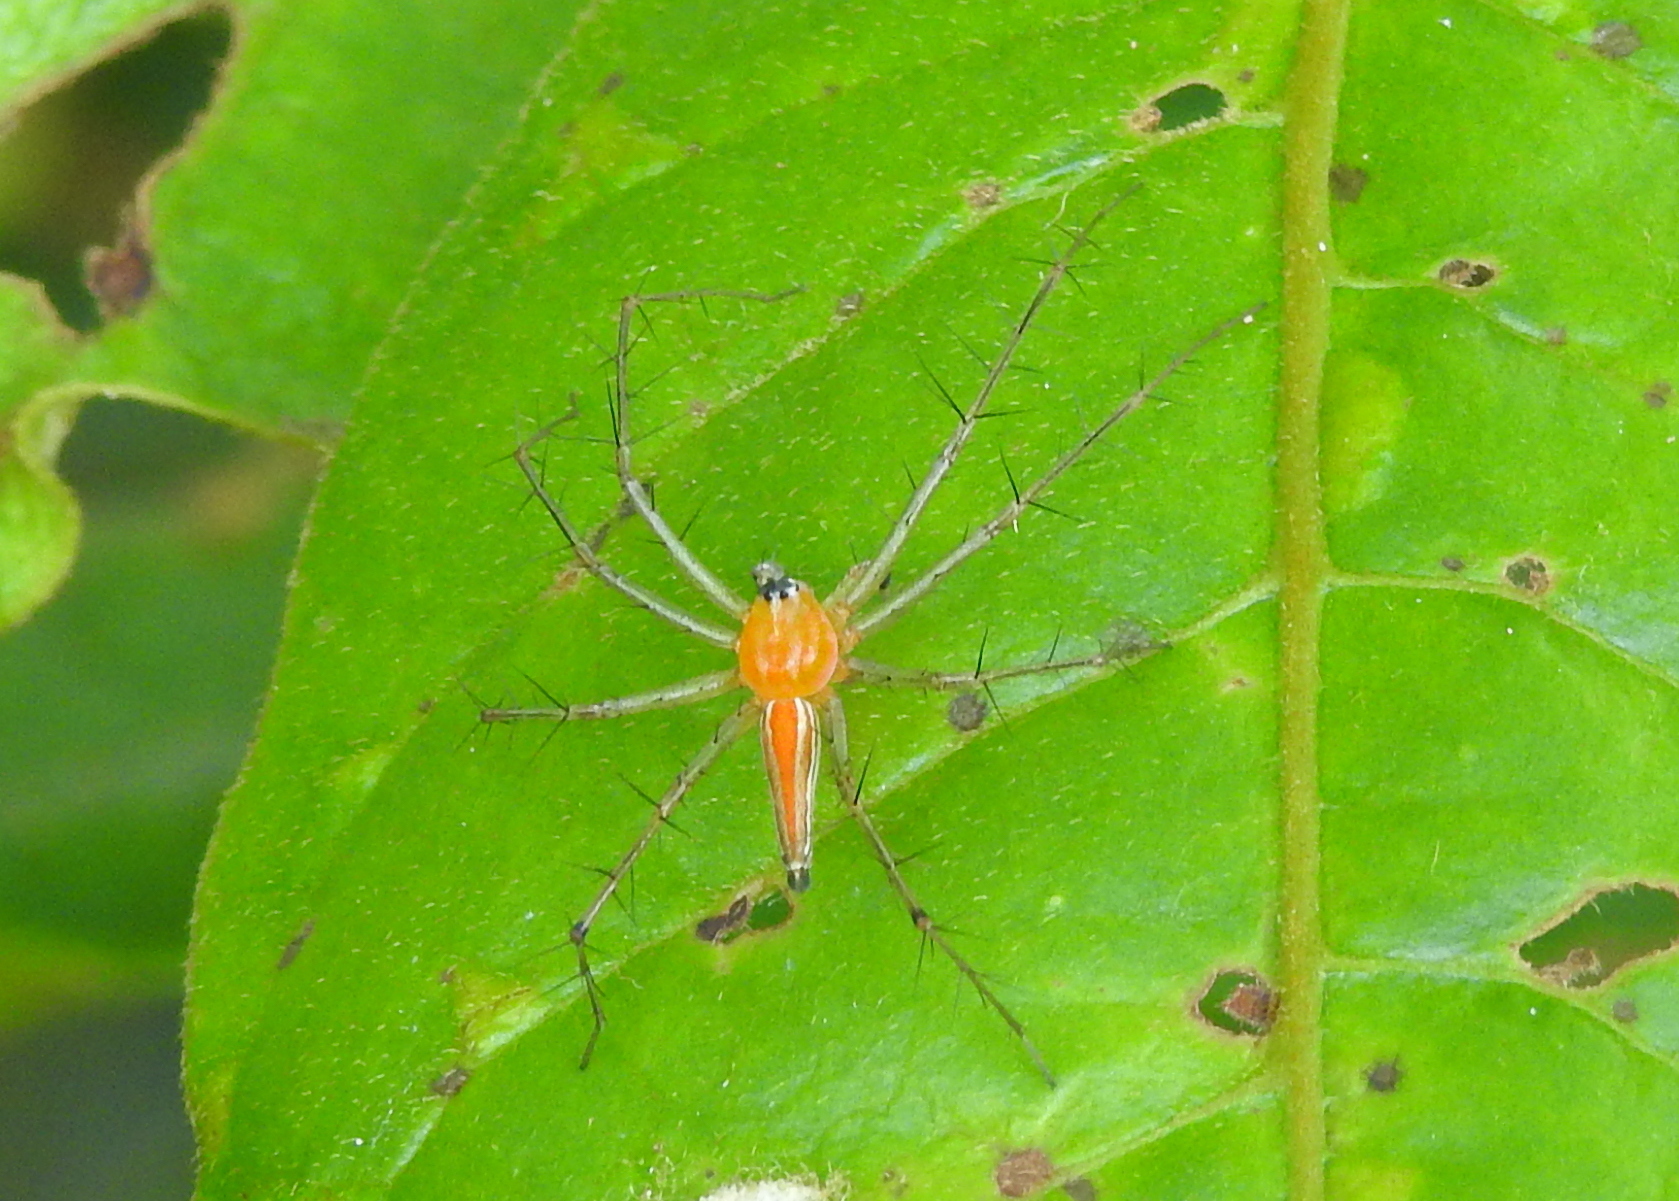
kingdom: Animalia
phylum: Arthropoda
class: Arachnida
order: Araneae
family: Oxyopidae
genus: Oxyopes
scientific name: Oxyopes macilentus
